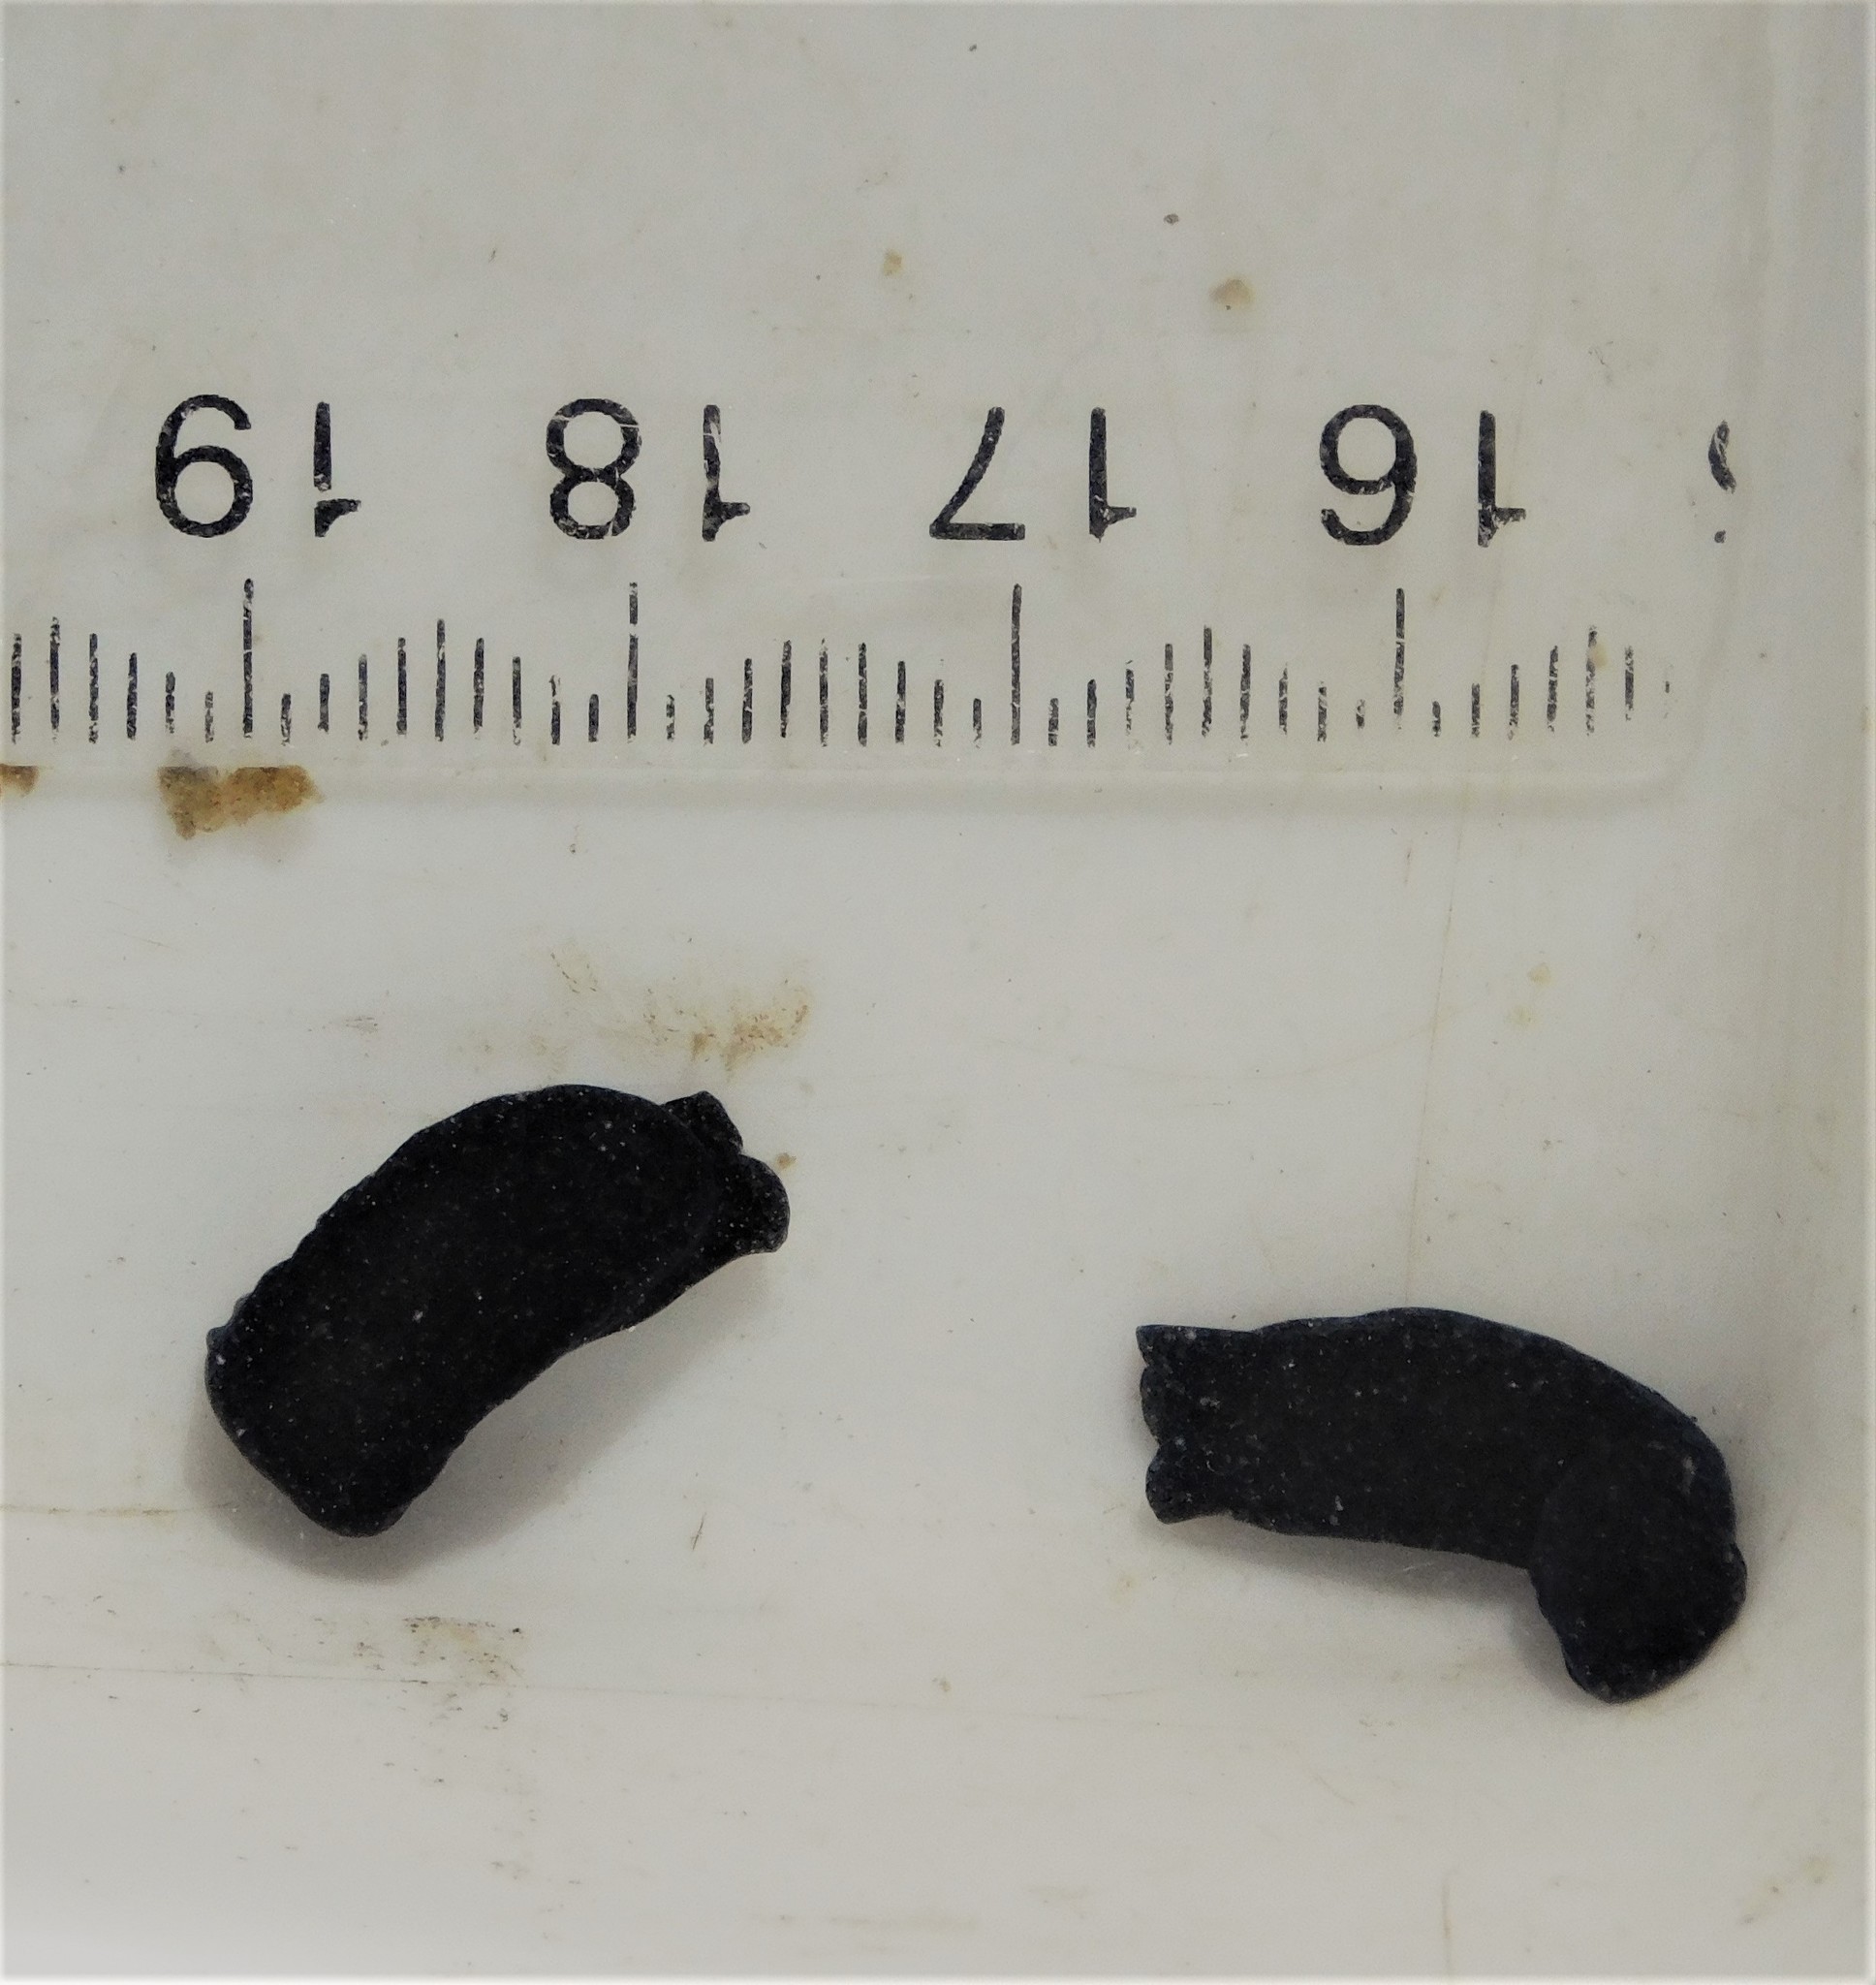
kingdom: Animalia
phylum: Mollusca
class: Gastropoda
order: Cephalaspidea
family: Aglajidae
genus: Melanochlamys
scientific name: Melanochlamys cylindrica
